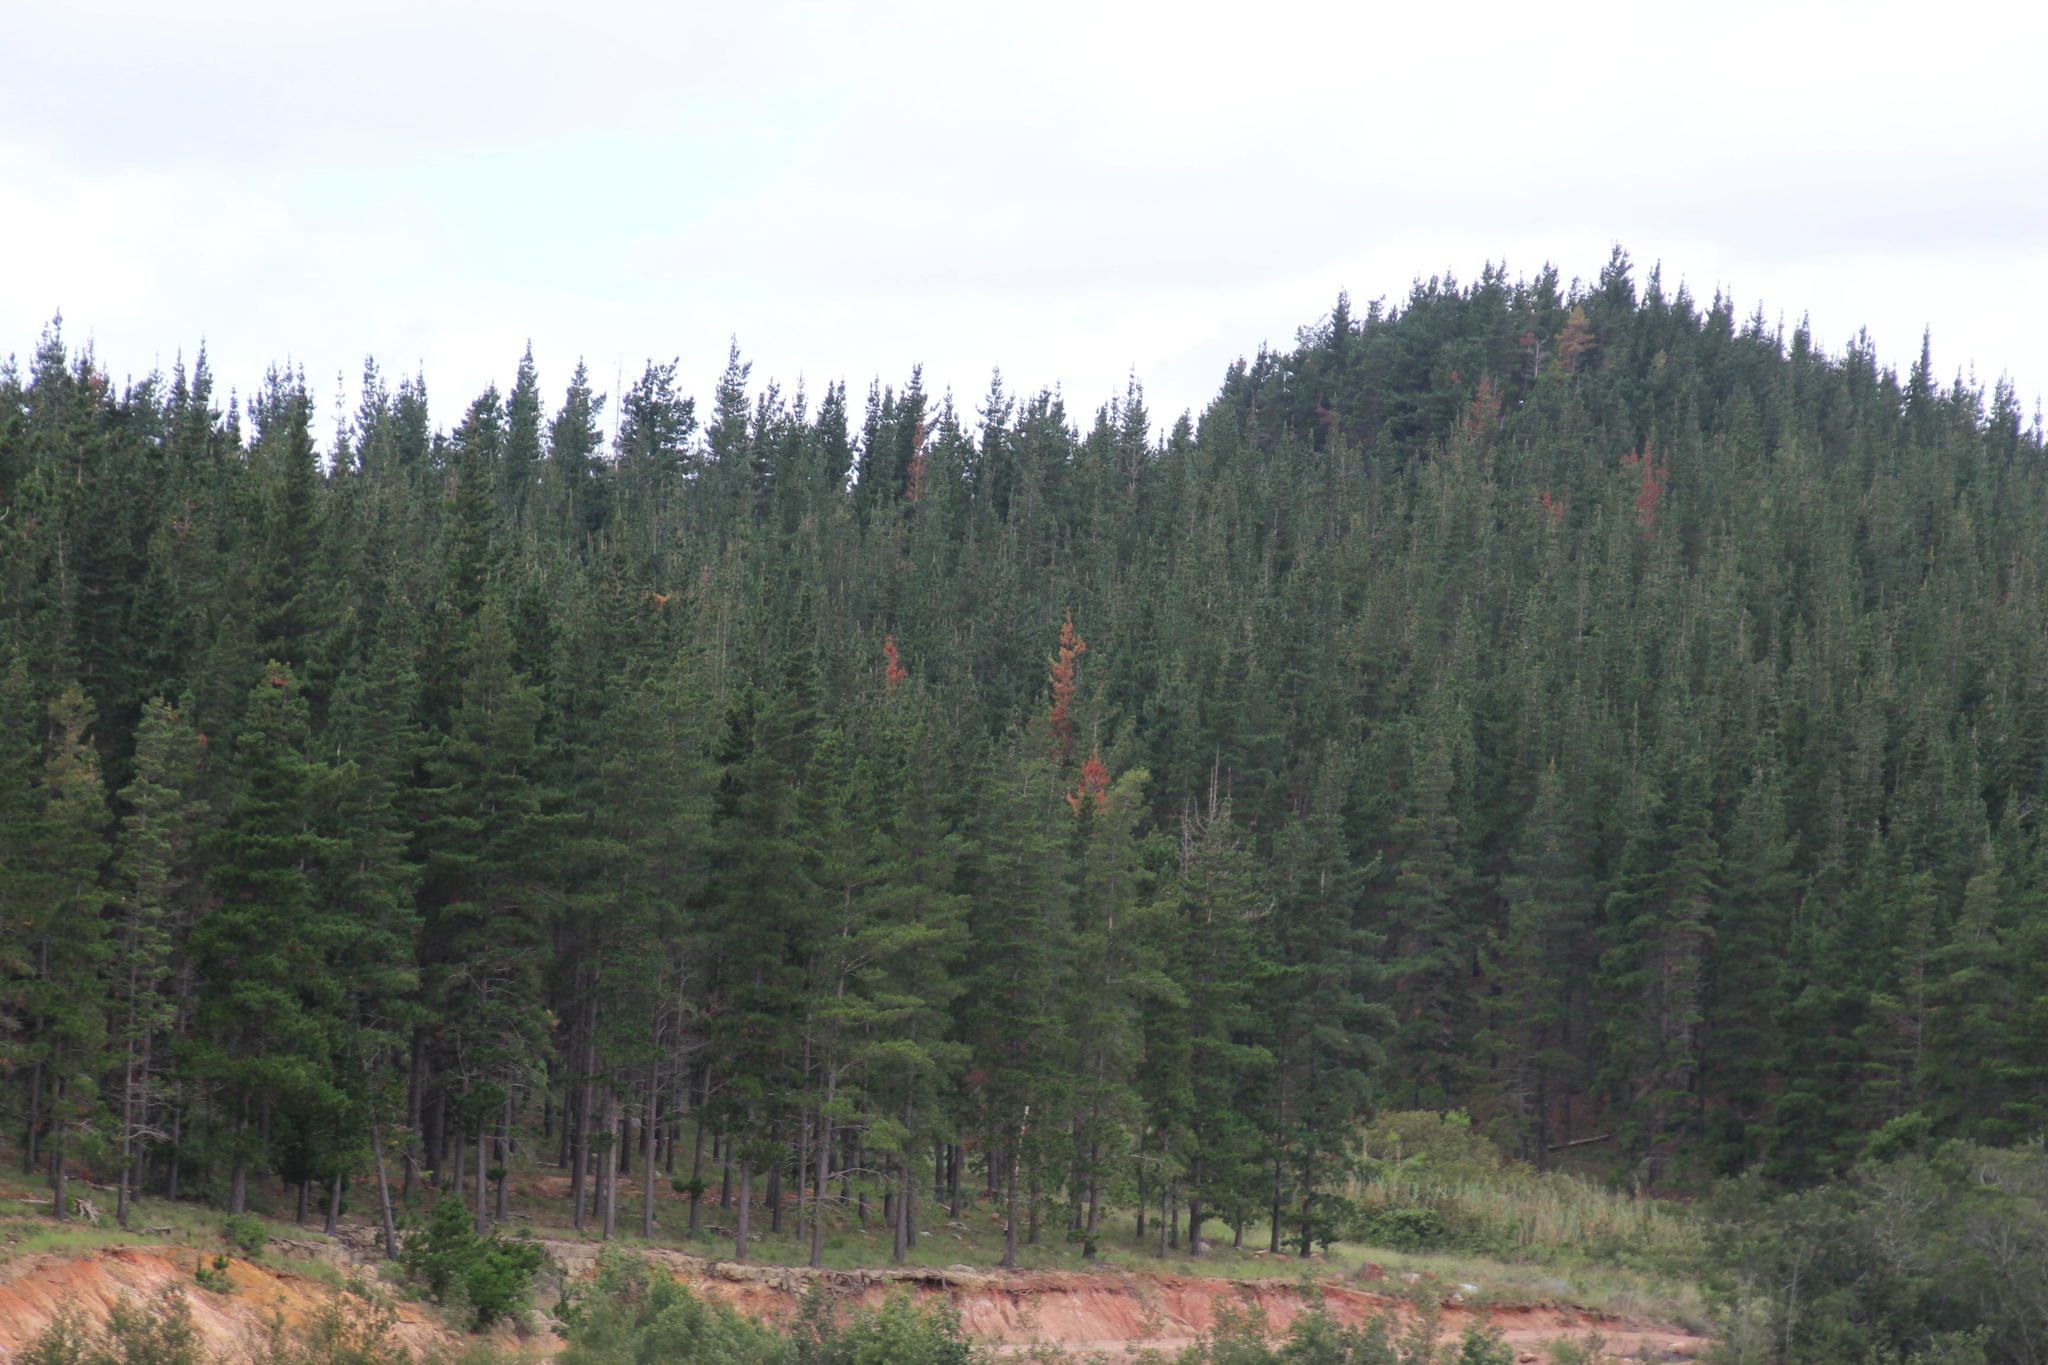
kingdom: Plantae
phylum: Tracheophyta
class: Pinopsida
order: Pinales
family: Pinaceae
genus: Pinus
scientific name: Pinus radiata
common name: Monterey pine
